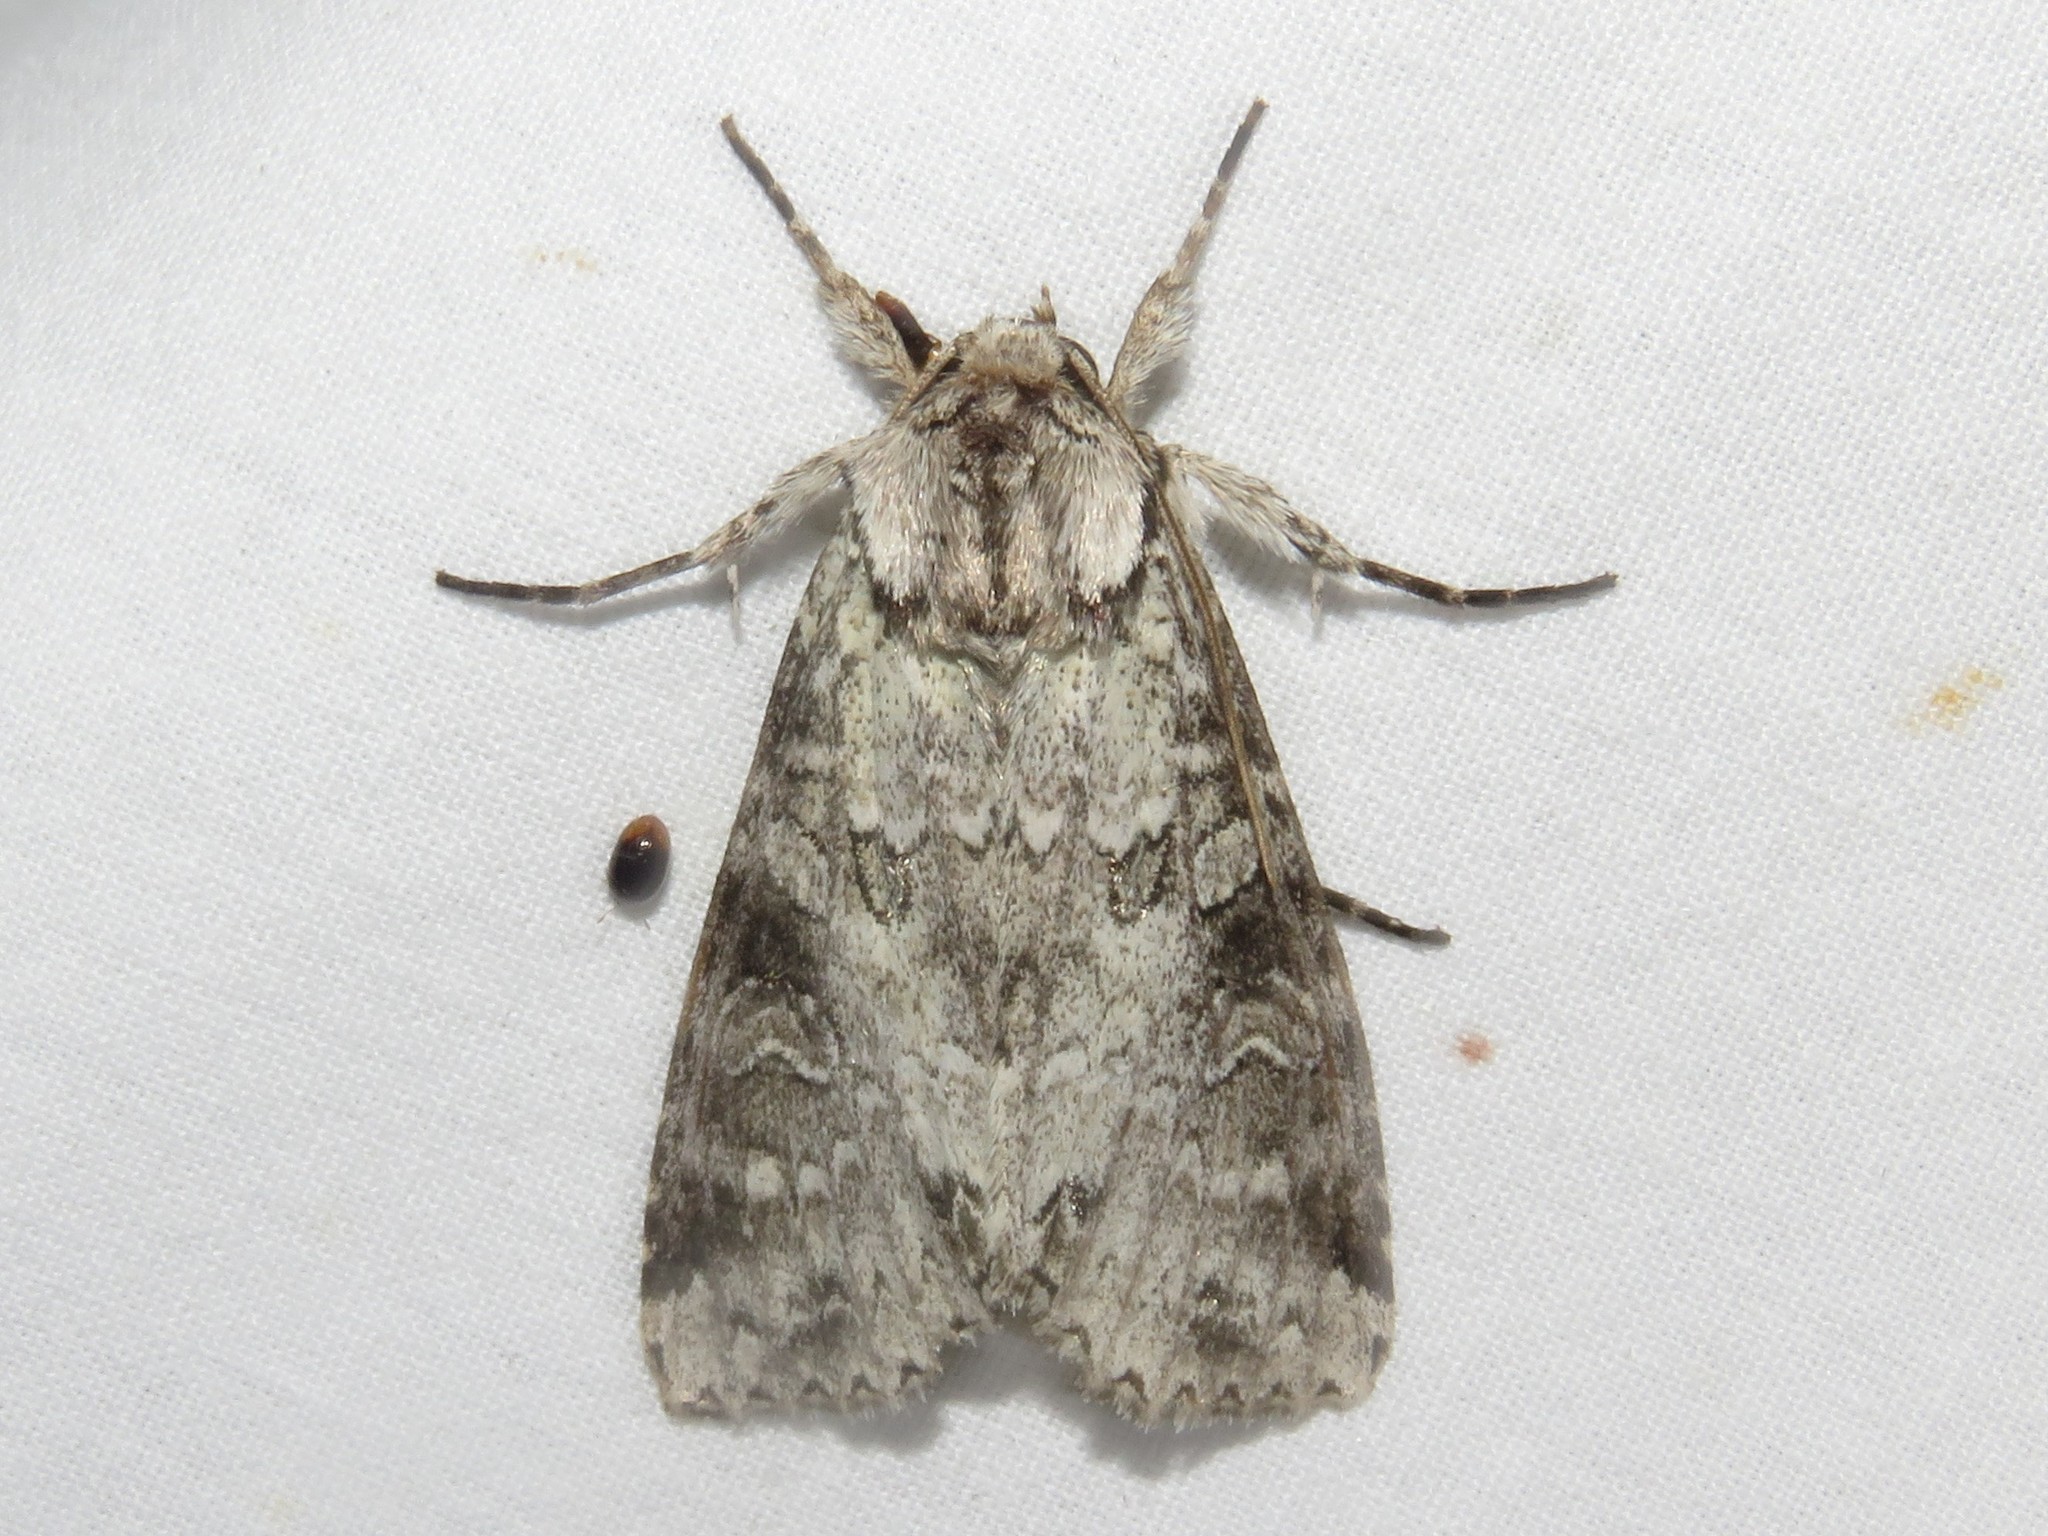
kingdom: Animalia
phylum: Arthropoda
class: Insecta
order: Lepidoptera
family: Noctuidae
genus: Polia
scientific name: Polia nimbosa
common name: Stormy arches
